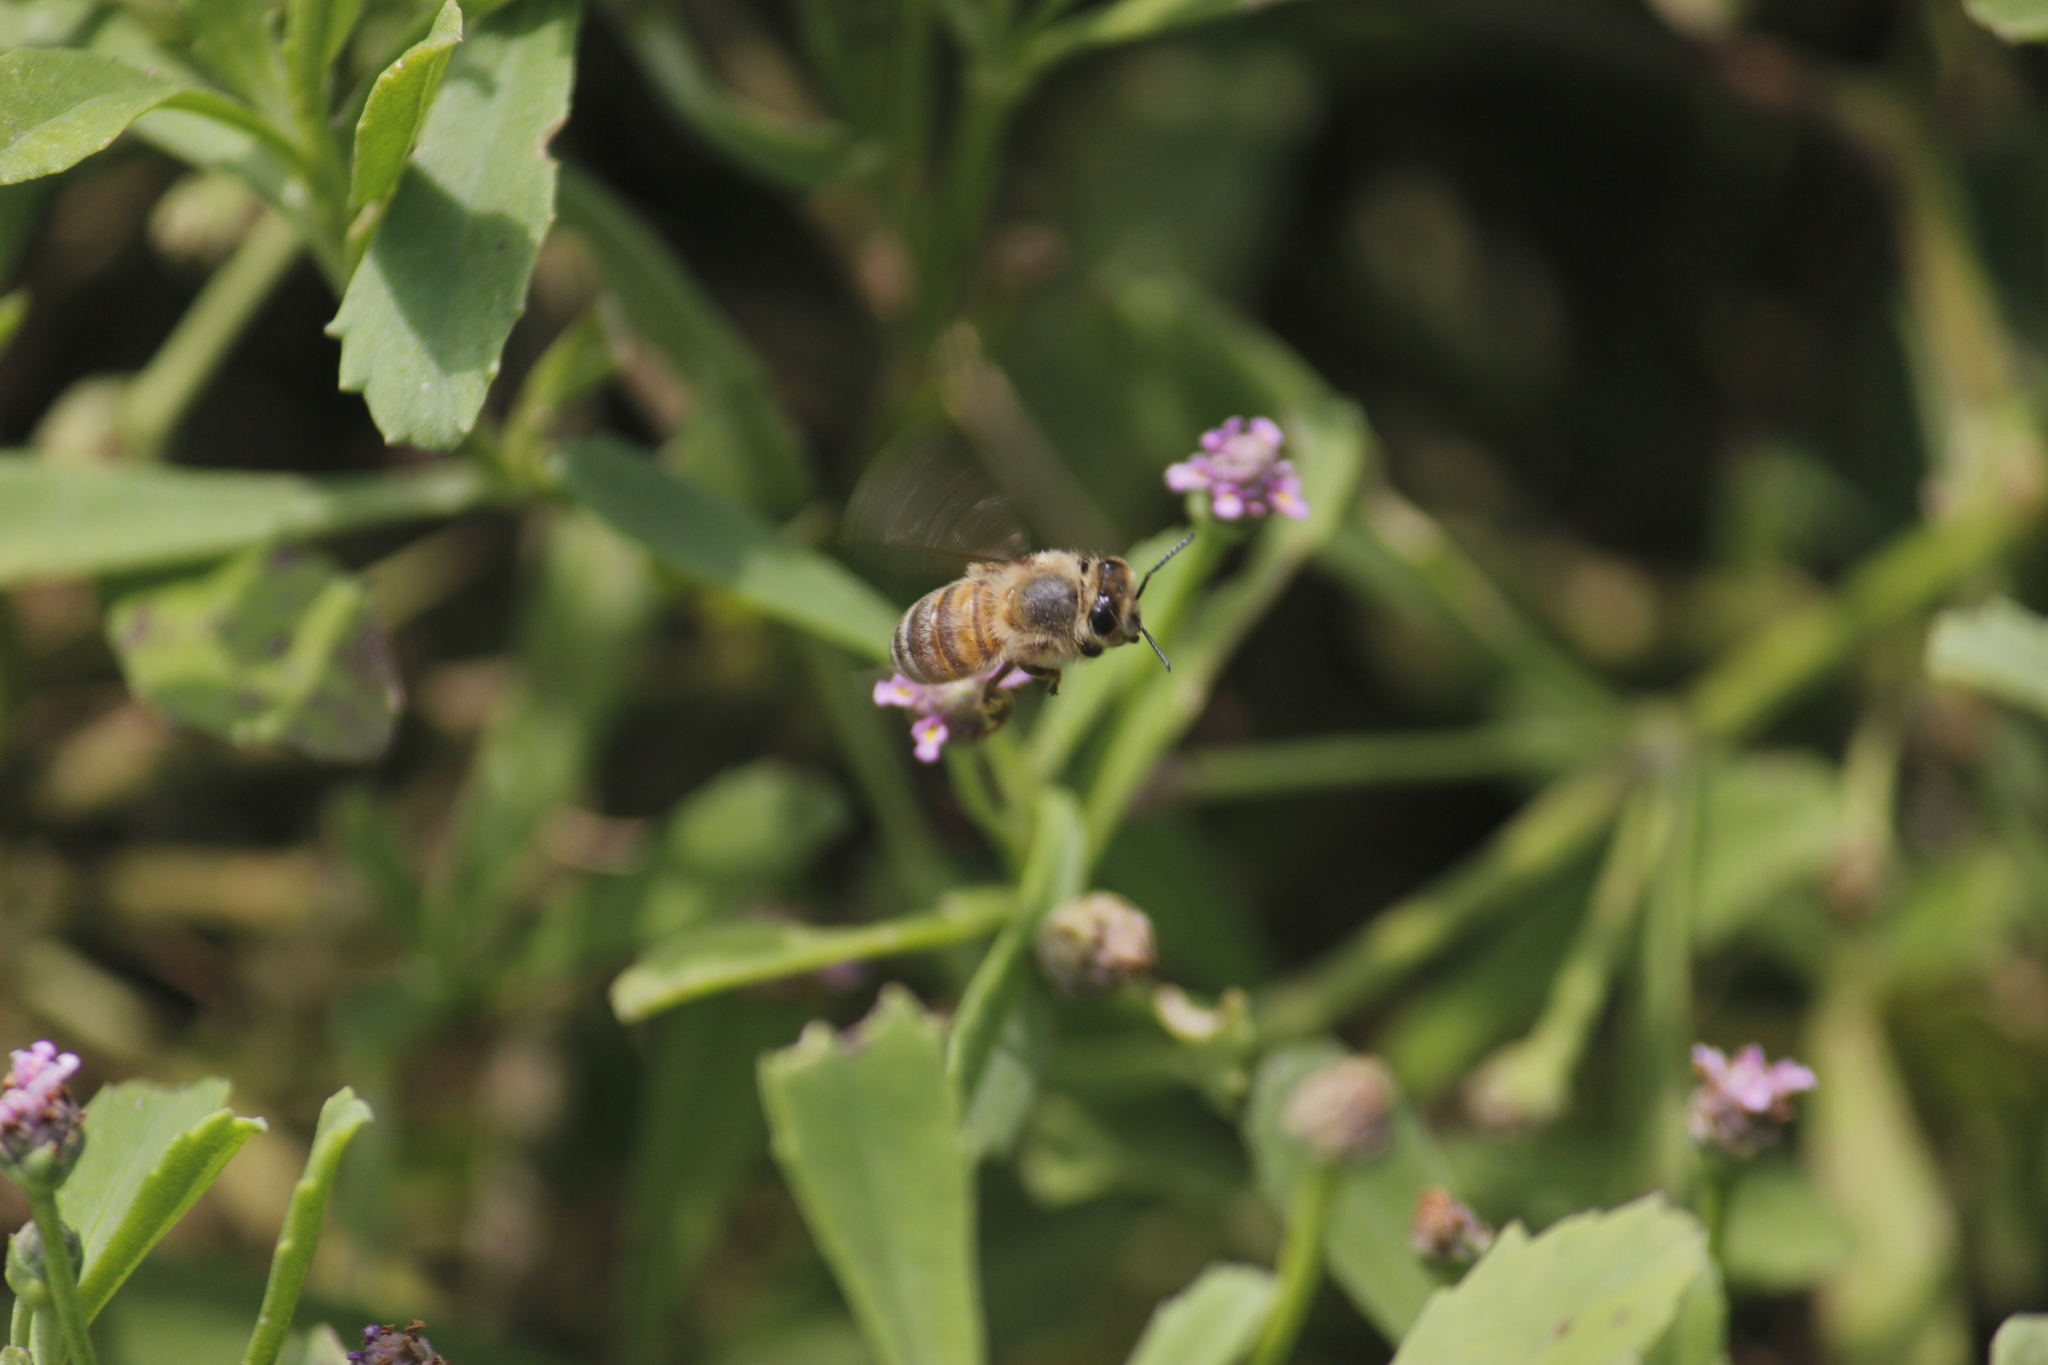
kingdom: Animalia
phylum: Arthropoda
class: Insecta
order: Hymenoptera
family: Apidae
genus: Apis
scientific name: Apis mellifera
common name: Honey bee
